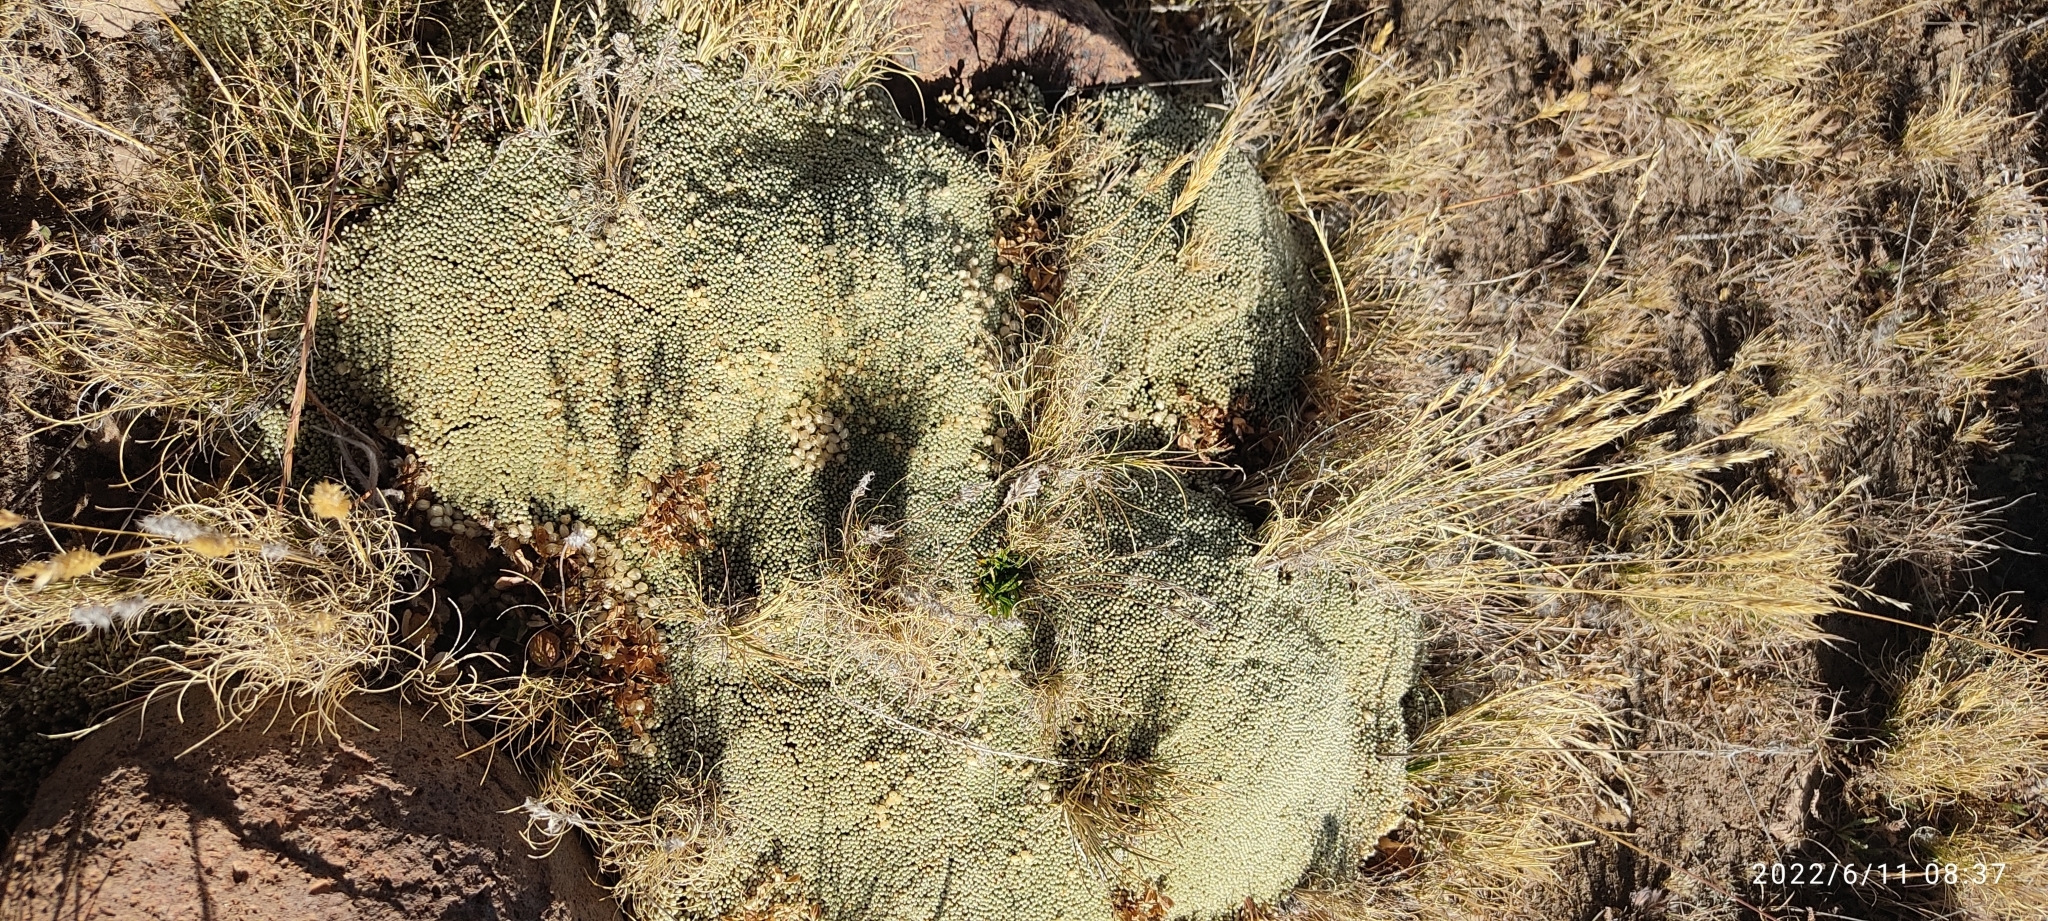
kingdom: Plantae
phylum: Tracheophyta
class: Magnoliopsida
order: Caryophyllales
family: Caryophyllaceae
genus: Pycnophyllum
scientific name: Pycnophyllum molle
